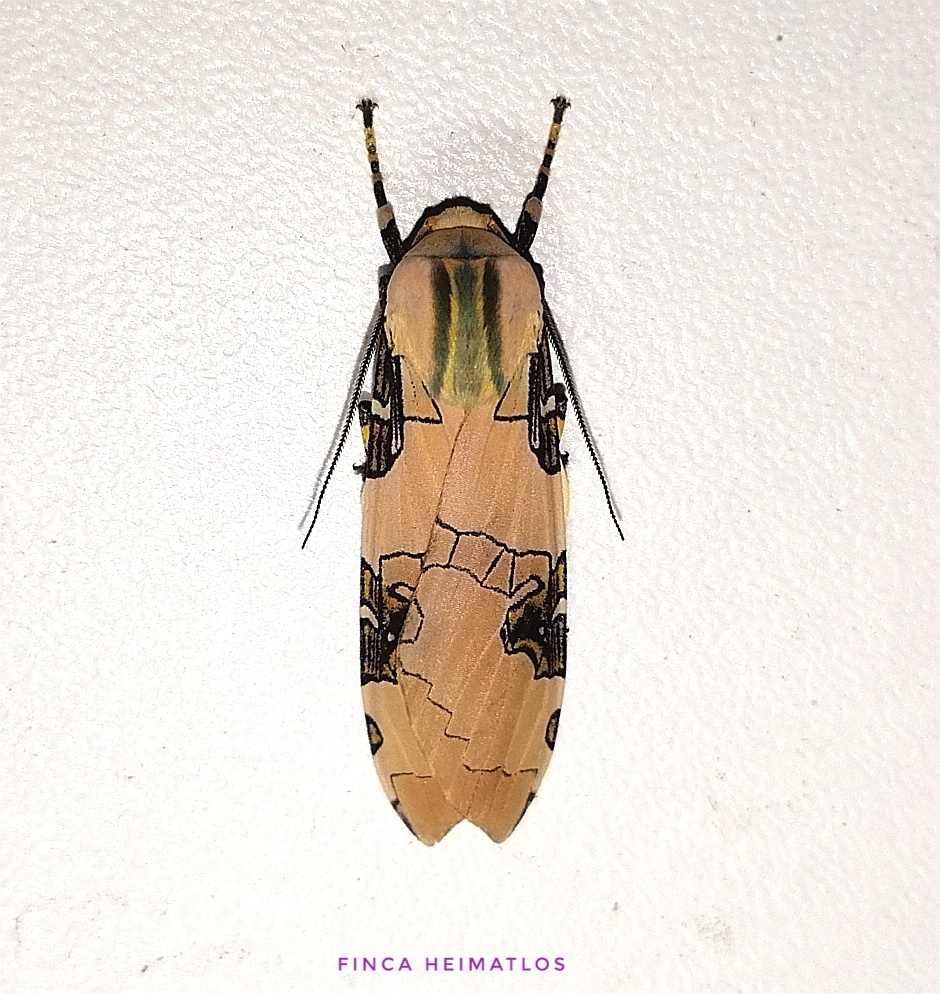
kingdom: Animalia
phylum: Arthropoda
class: Insecta
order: Lepidoptera
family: Erebidae
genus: Halysidota
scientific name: Halysidota interlineata
